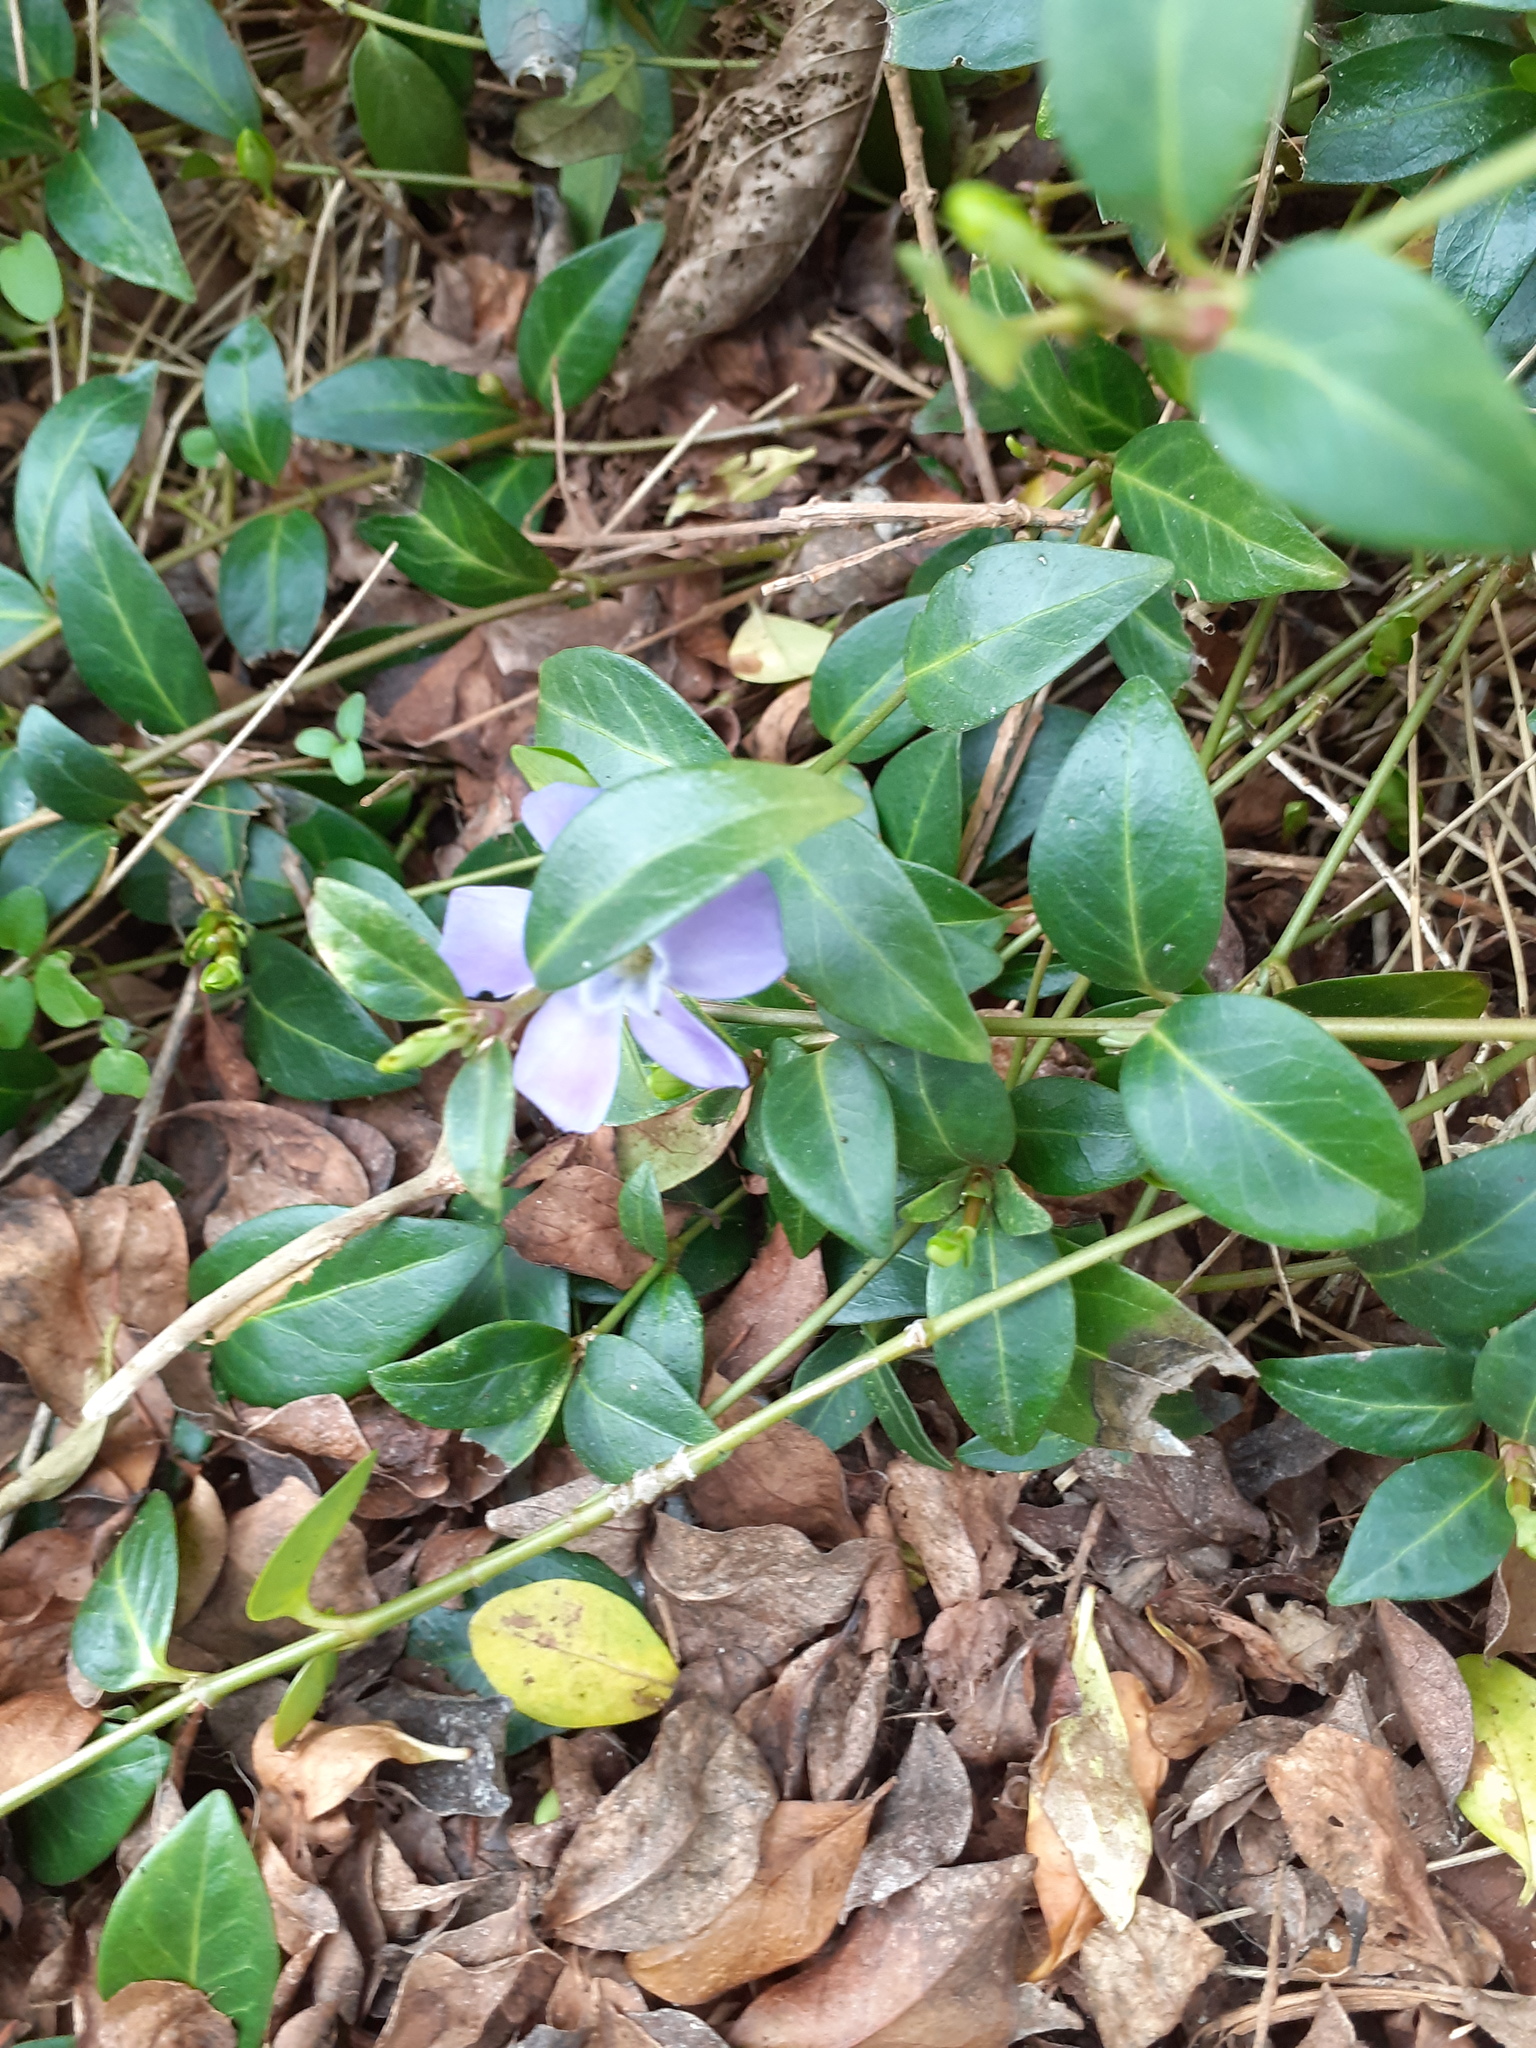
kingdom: Plantae
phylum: Tracheophyta
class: Magnoliopsida
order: Gentianales
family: Apocynaceae
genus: Vinca
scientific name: Vinca minor
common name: Lesser periwinkle
